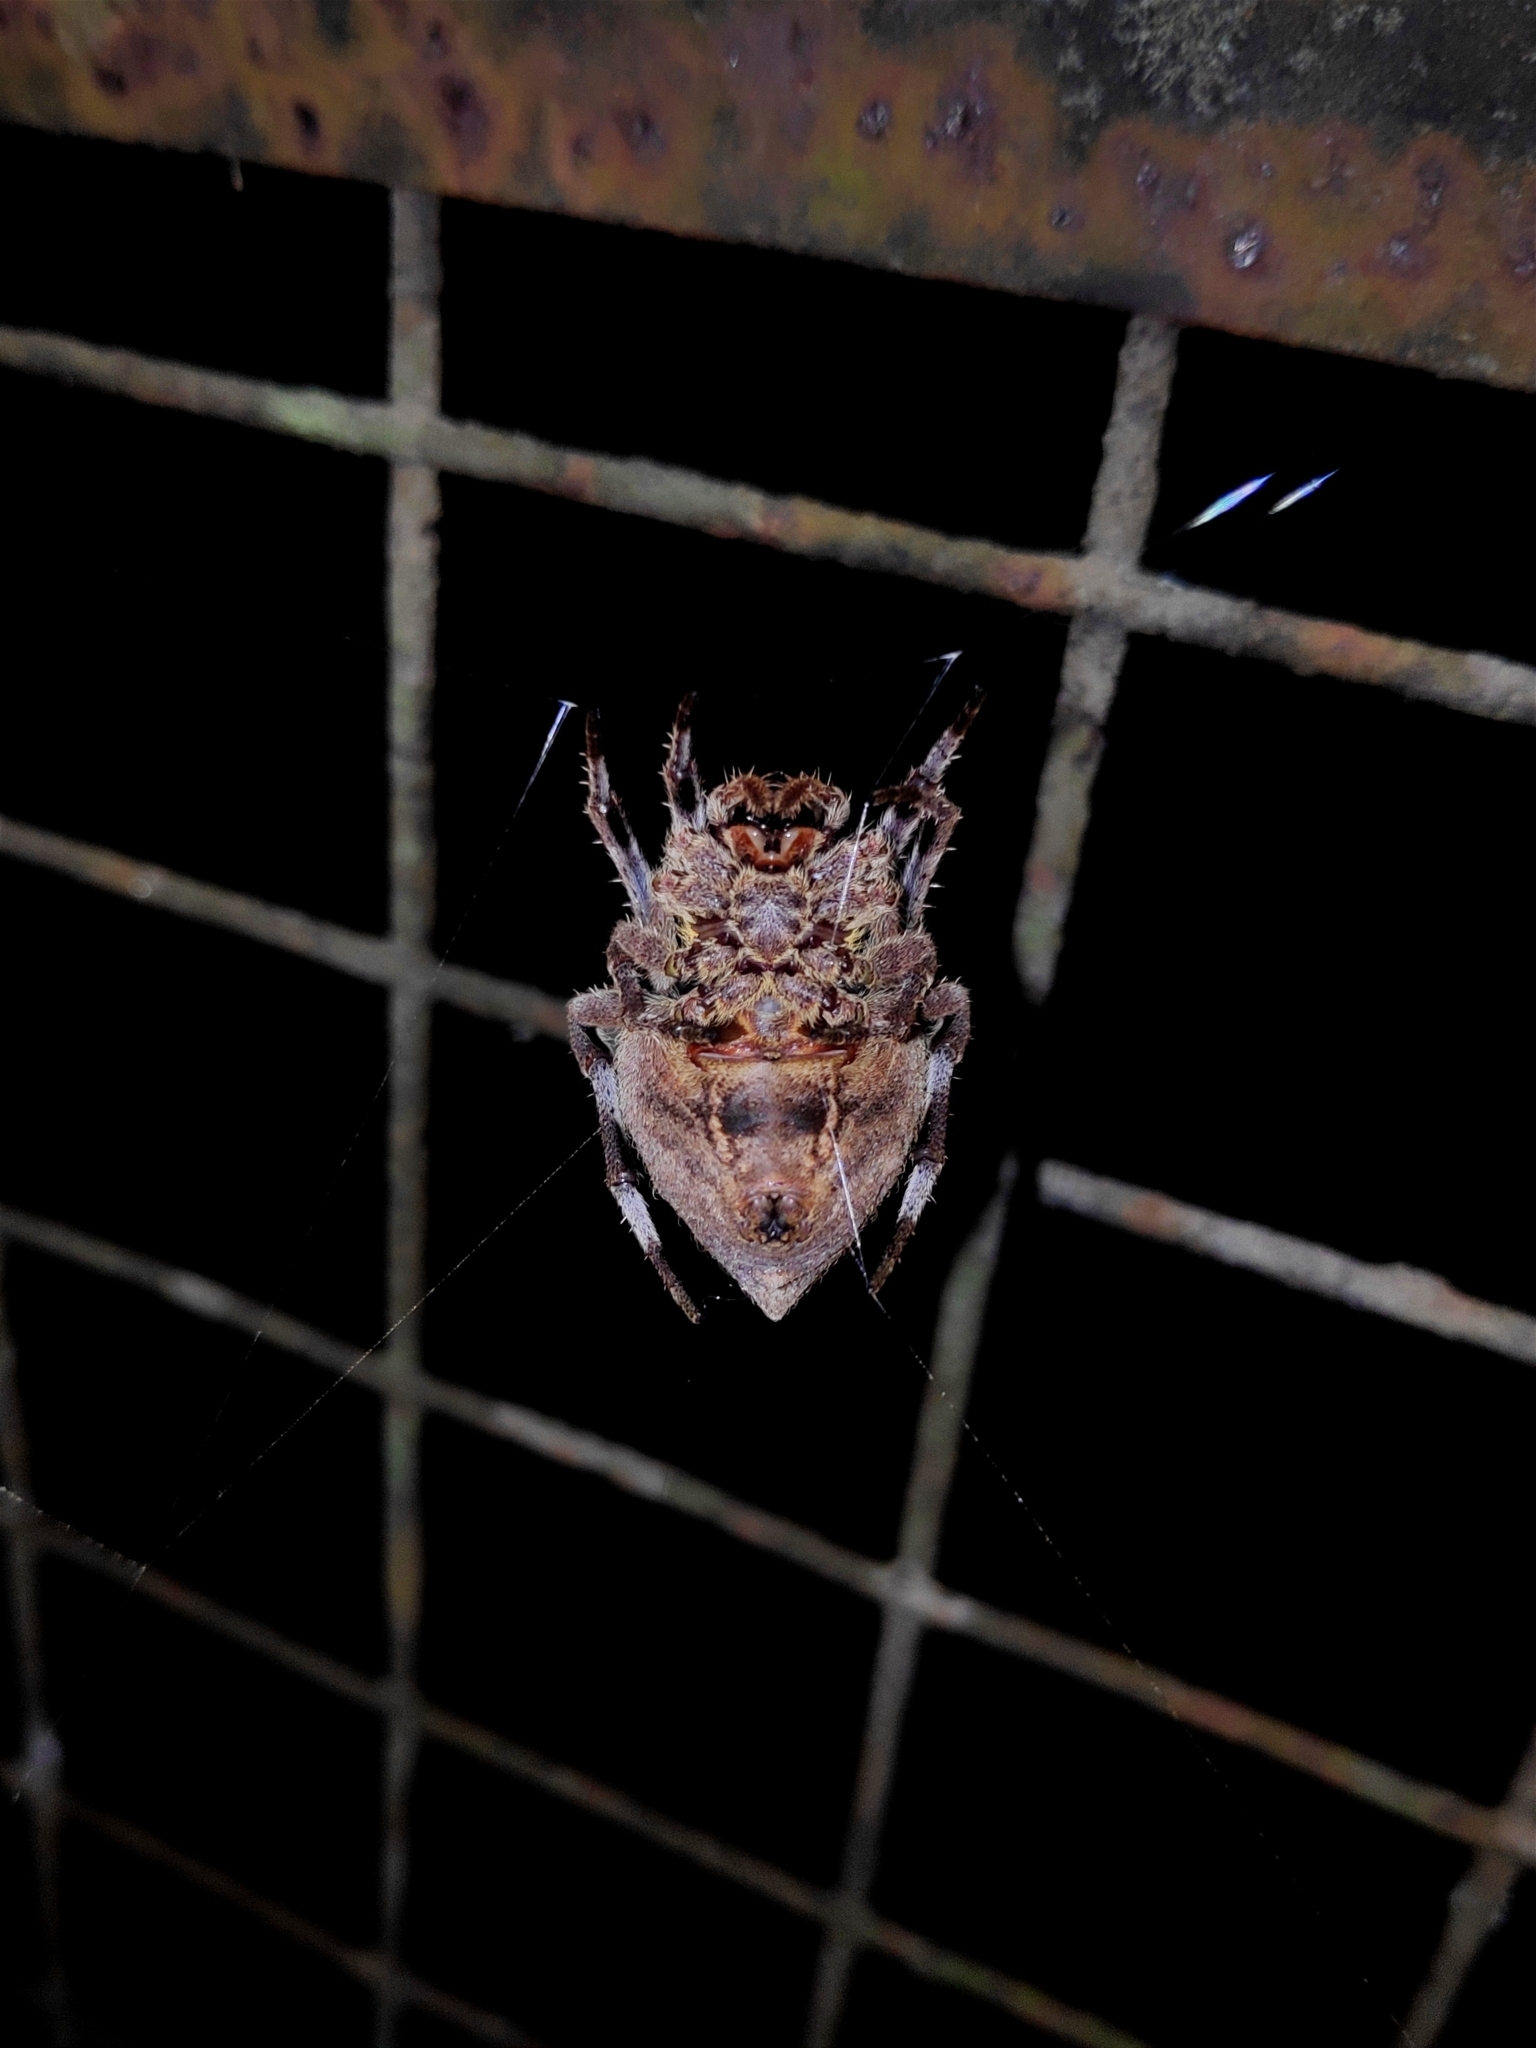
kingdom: Animalia
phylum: Arthropoda
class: Arachnida
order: Araneae
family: Araneidae
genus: Parawixia
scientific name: Parawixia dehaani
